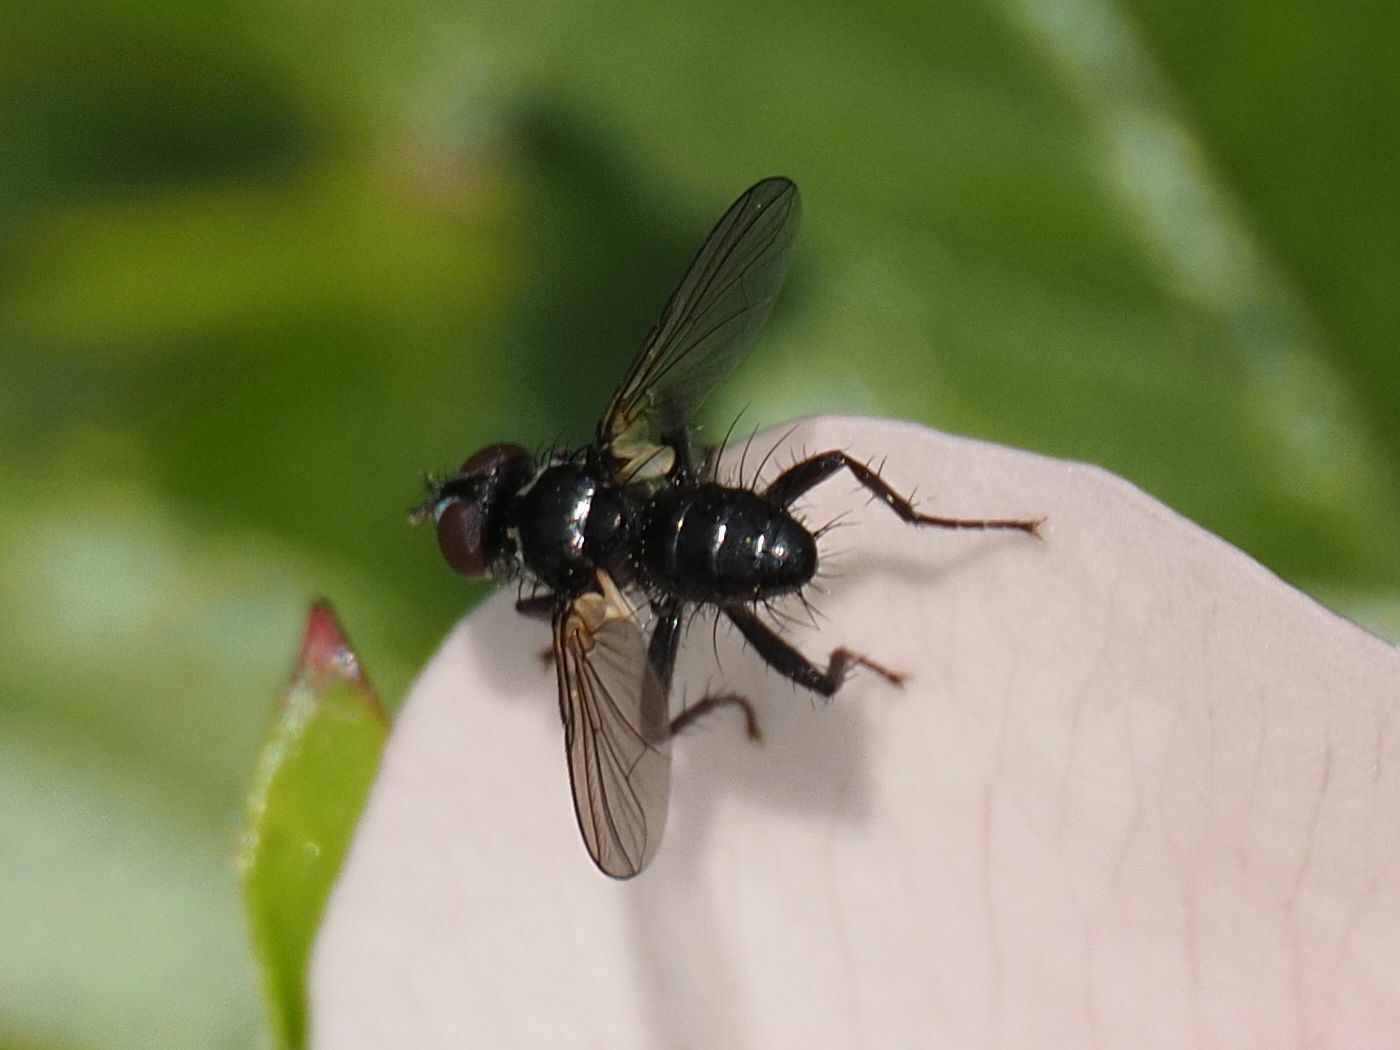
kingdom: Animalia
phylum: Arthropoda
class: Insecta
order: Diptera
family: Tachinidae
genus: Phania
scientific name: Phania funesta
